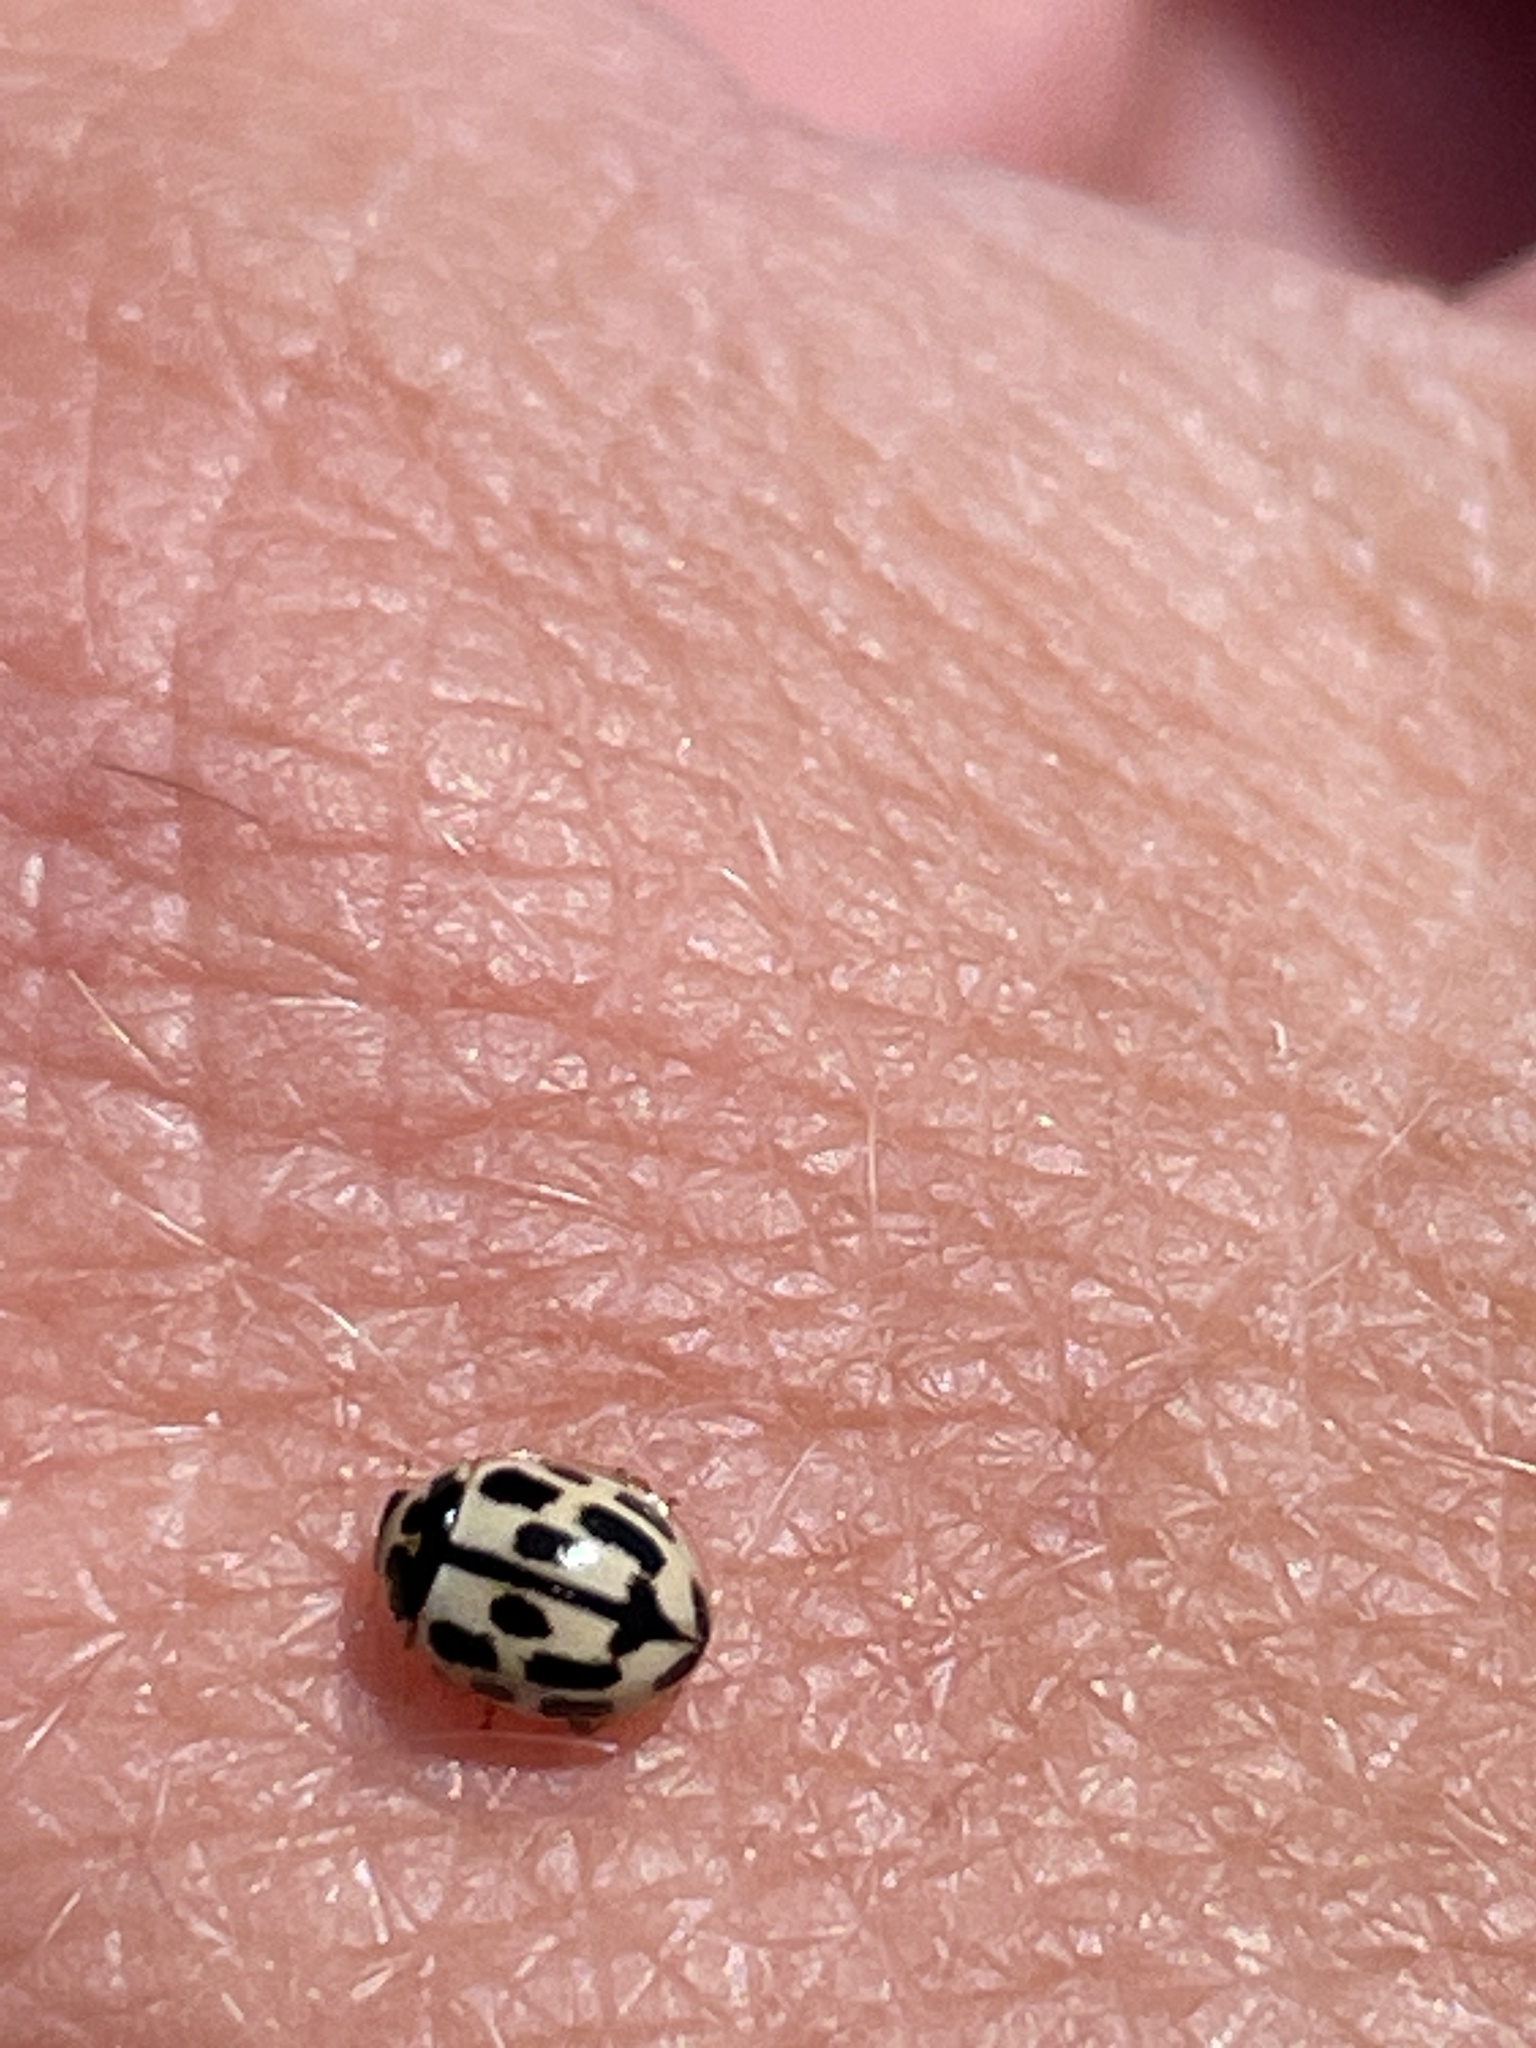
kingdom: Animalia
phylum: Arthropoda
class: Insecta
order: Coleoptera
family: Coccinellidae
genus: Propylaea
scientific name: Propylaea quatuordecimpunctata
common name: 14-spotted ladybird beetle
